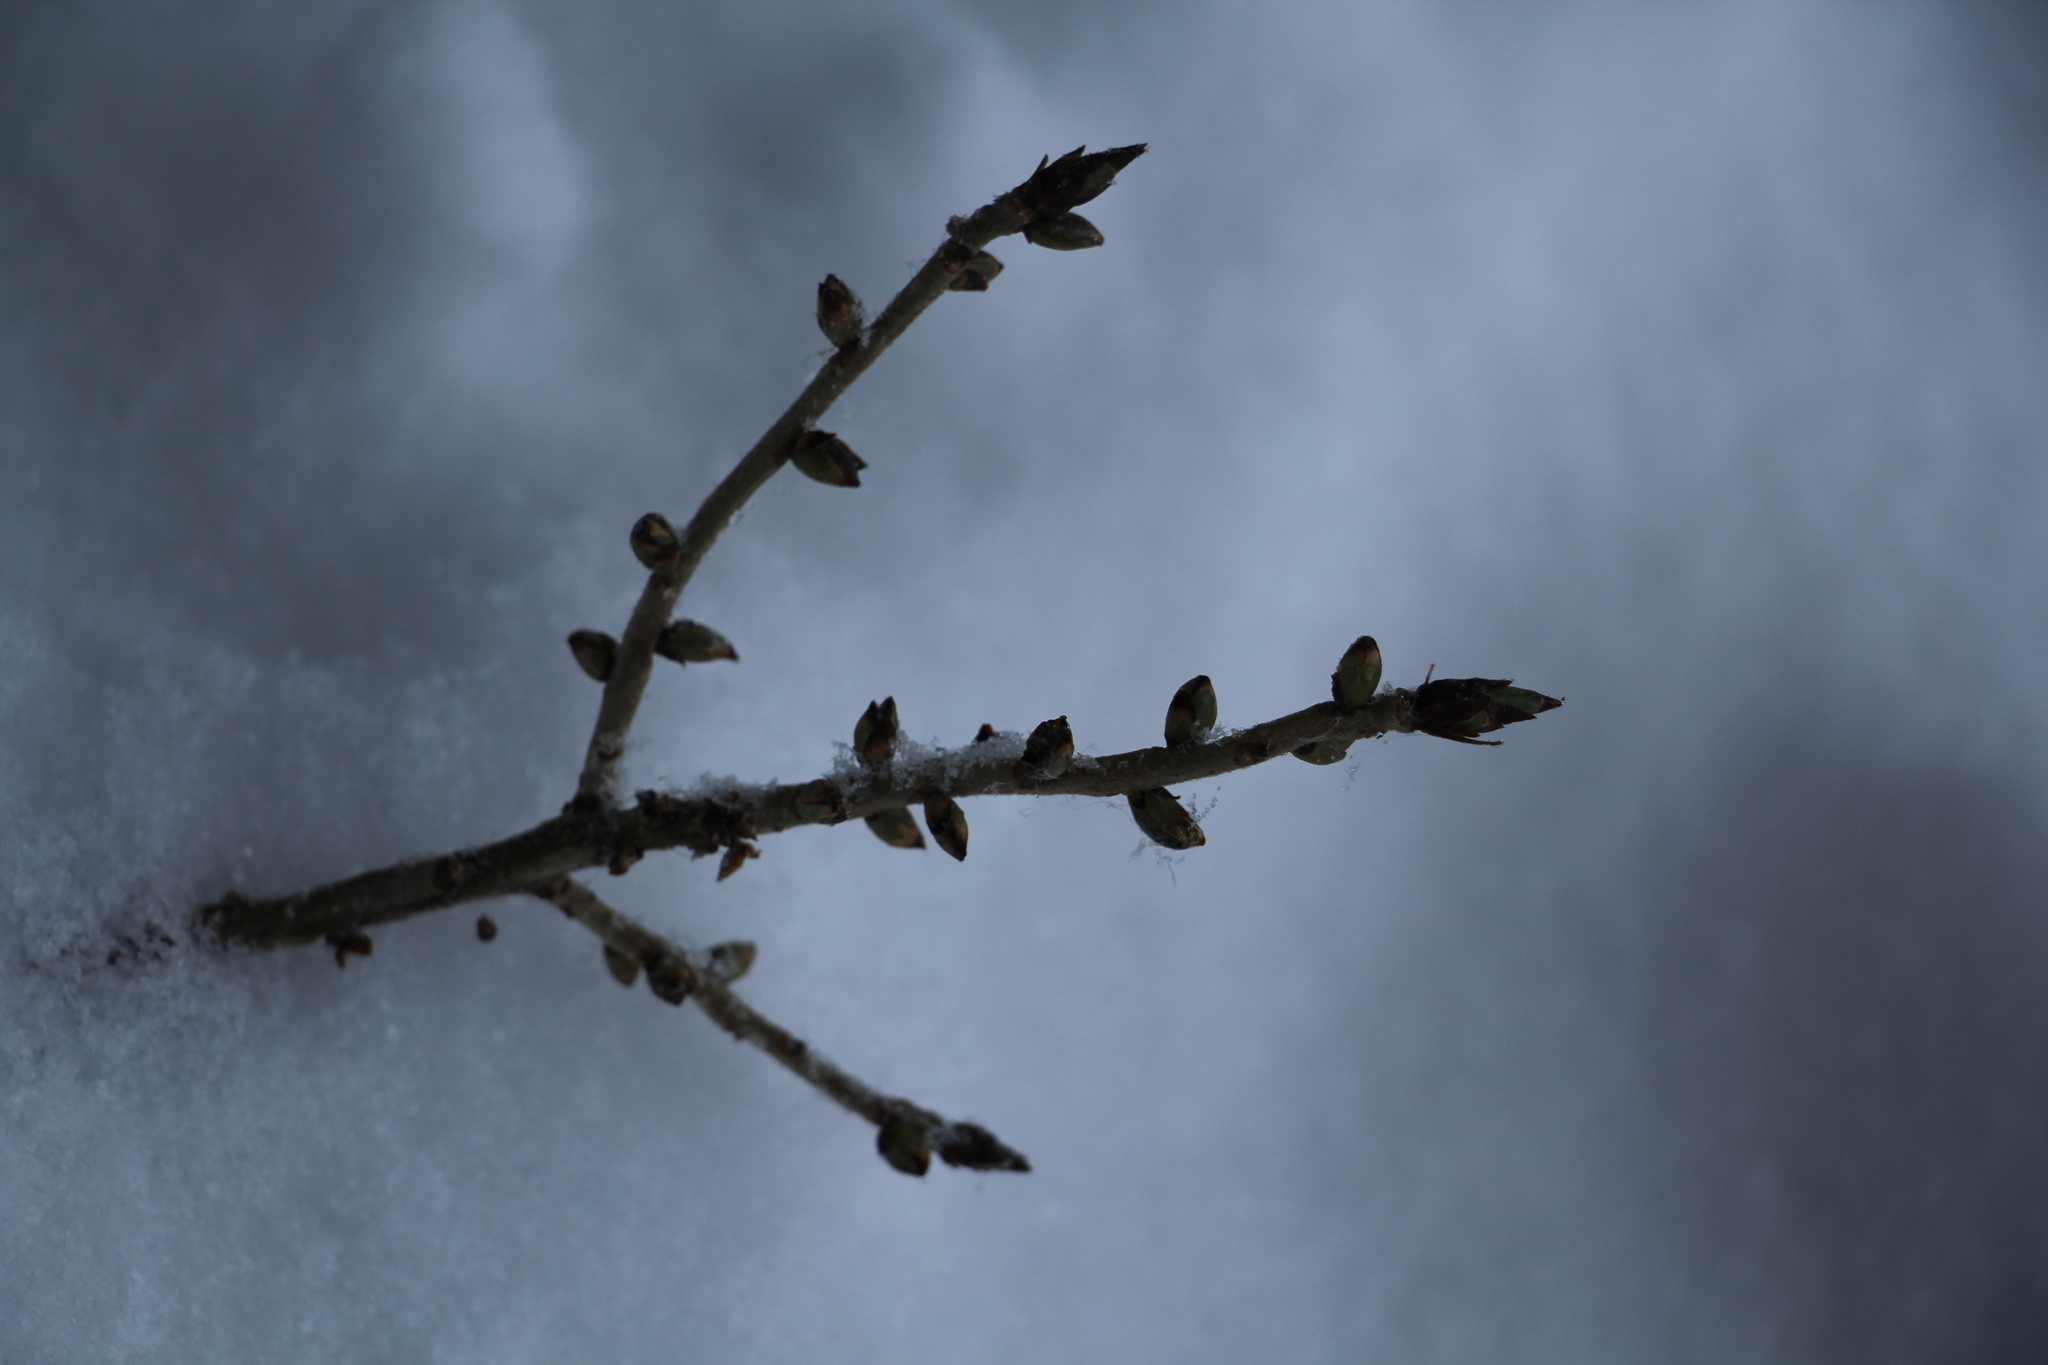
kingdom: Plantae
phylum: Tracheophyta
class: Magnoliopsida
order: Malvales
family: Thymelaeaceae
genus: Daphne
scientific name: Daphne mezereum
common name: Mezereon
